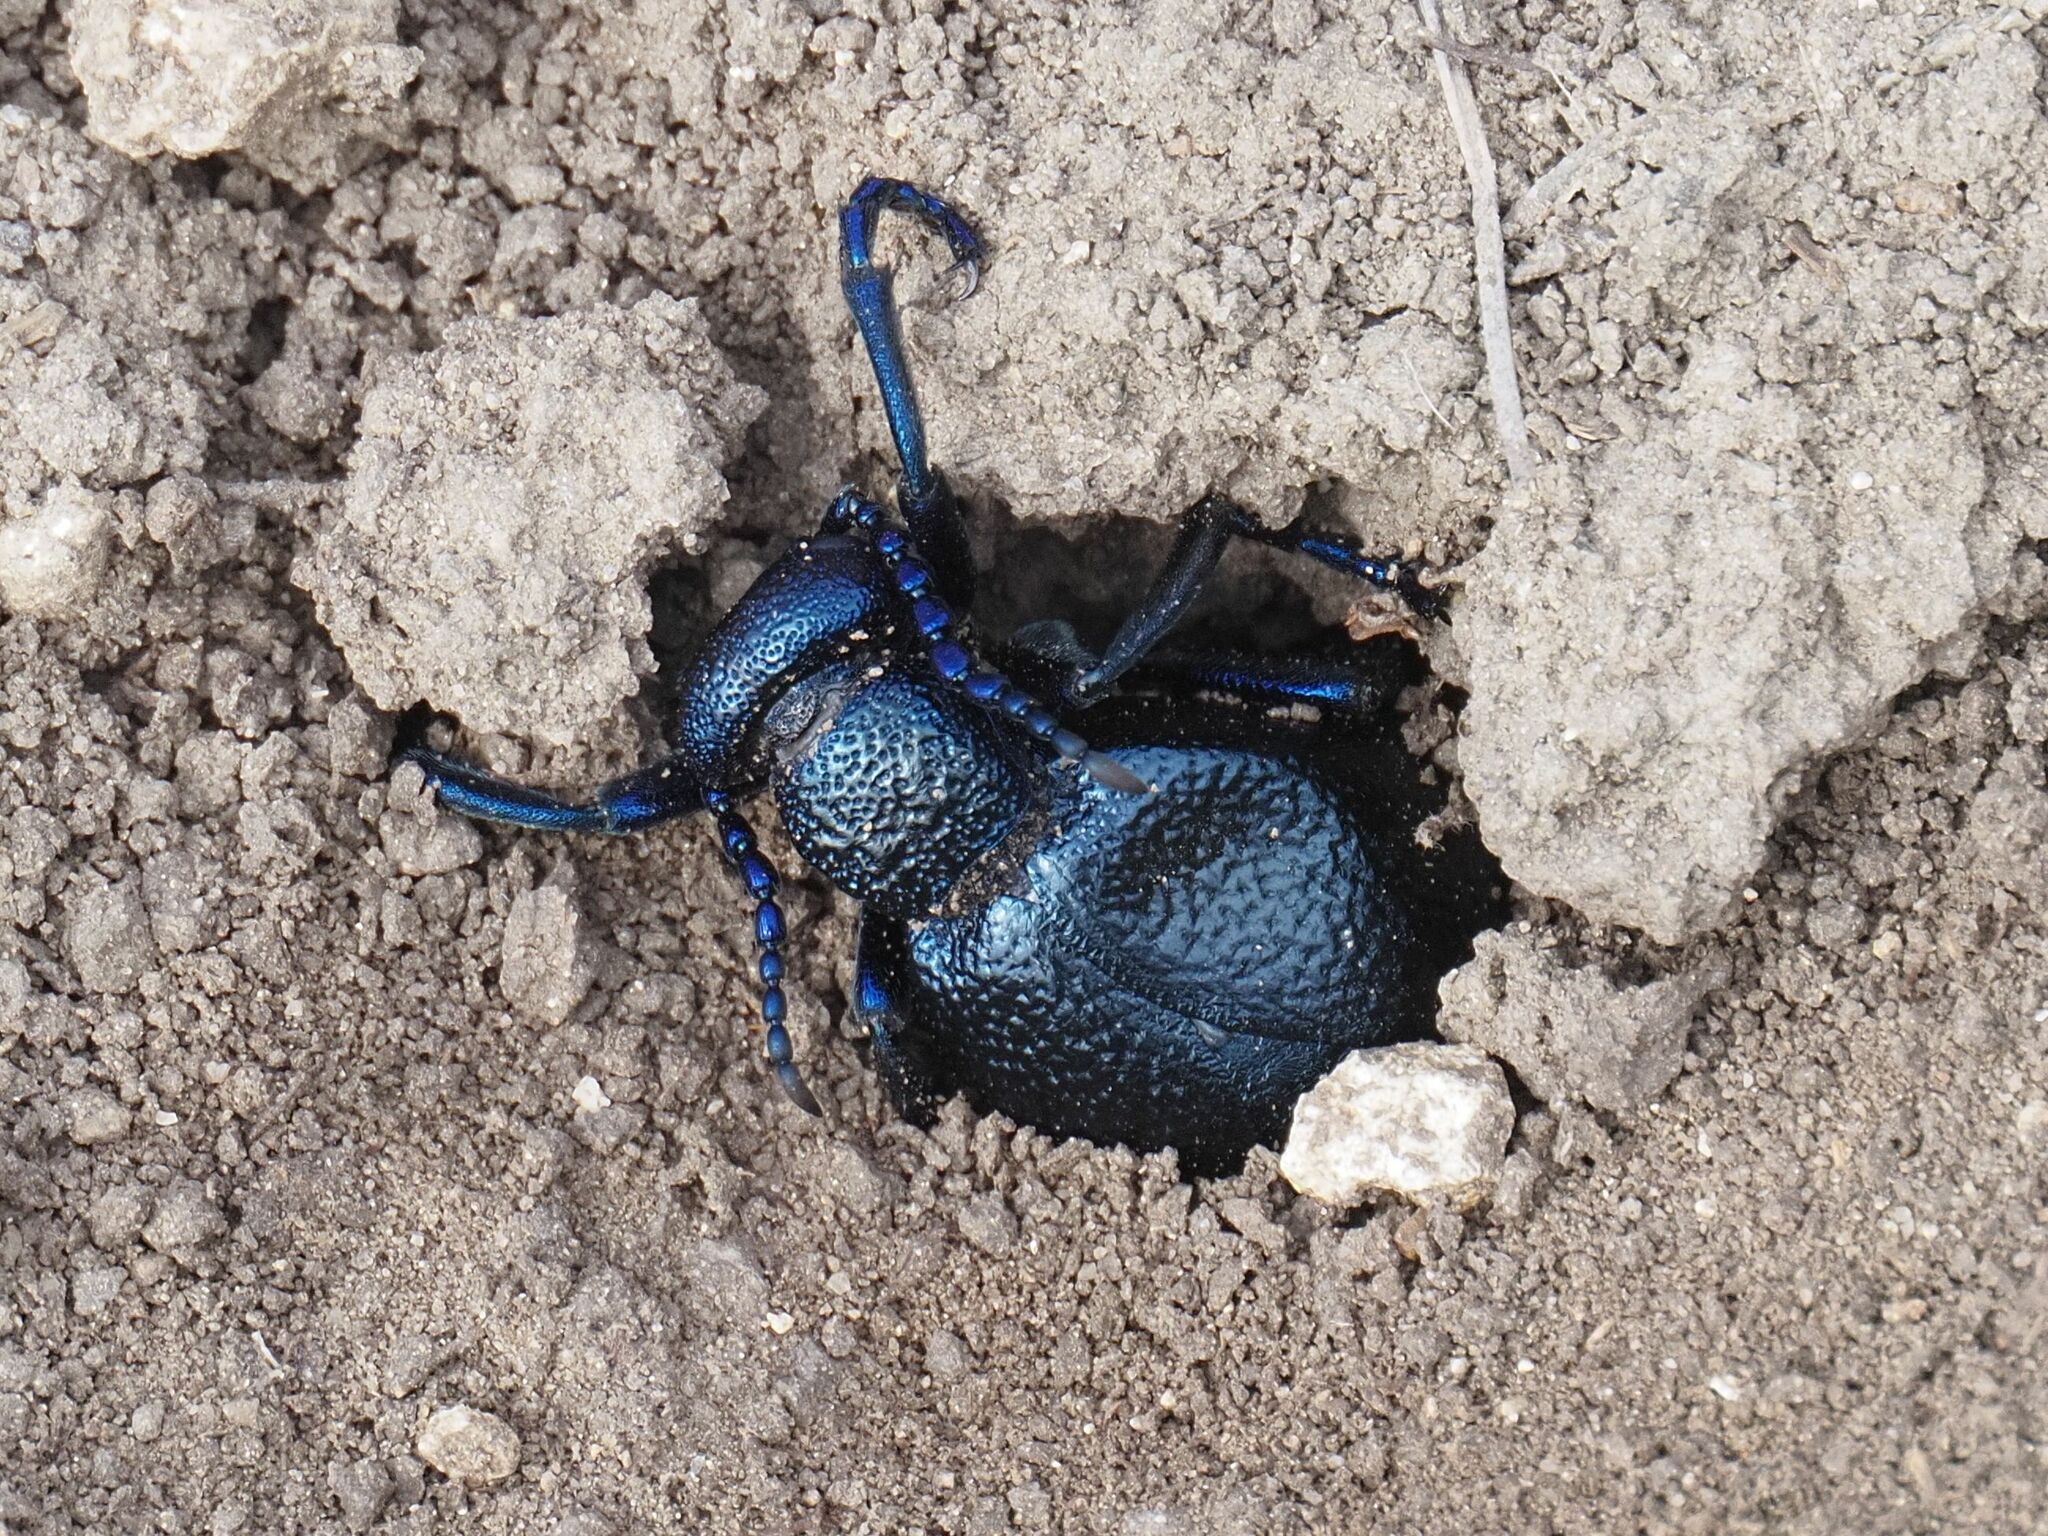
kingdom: Animalia
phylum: Arthropoda
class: Insecta
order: Coleoptera
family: Meloidae
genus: Meloe
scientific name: Meloe proscarabaeus
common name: Black oil-beetle
